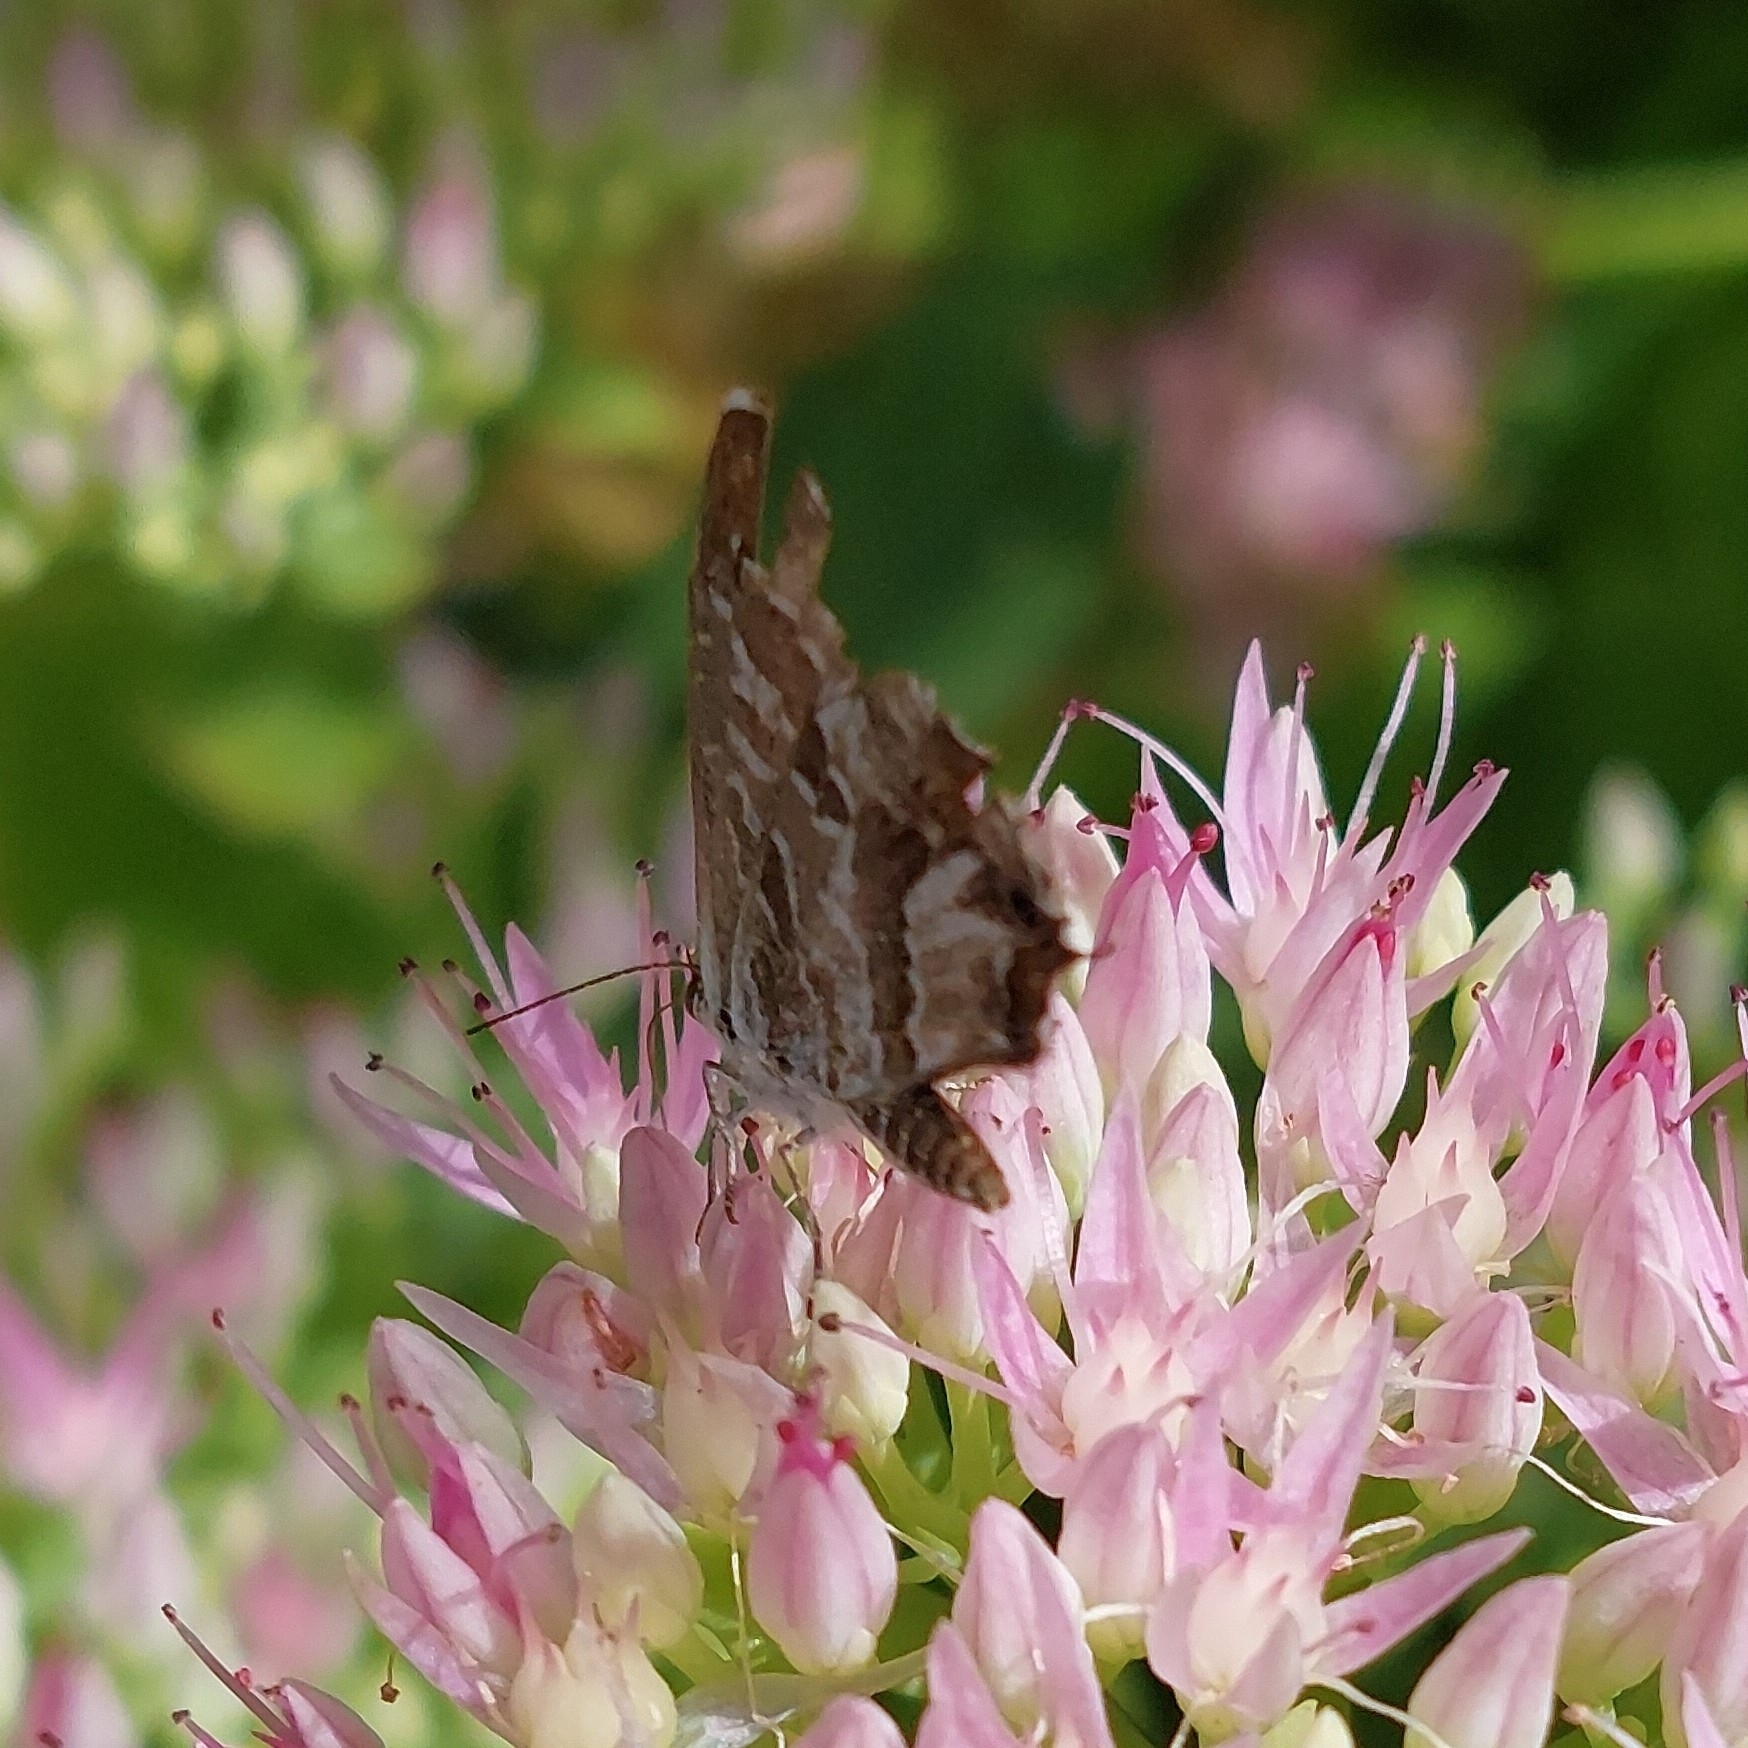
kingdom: Animalia
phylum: Arthropoda
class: Insecta
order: Lepidoptera
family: Lycaenidae
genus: Cacyreus
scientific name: Cacyreus marshalli
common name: Geranium bronze
